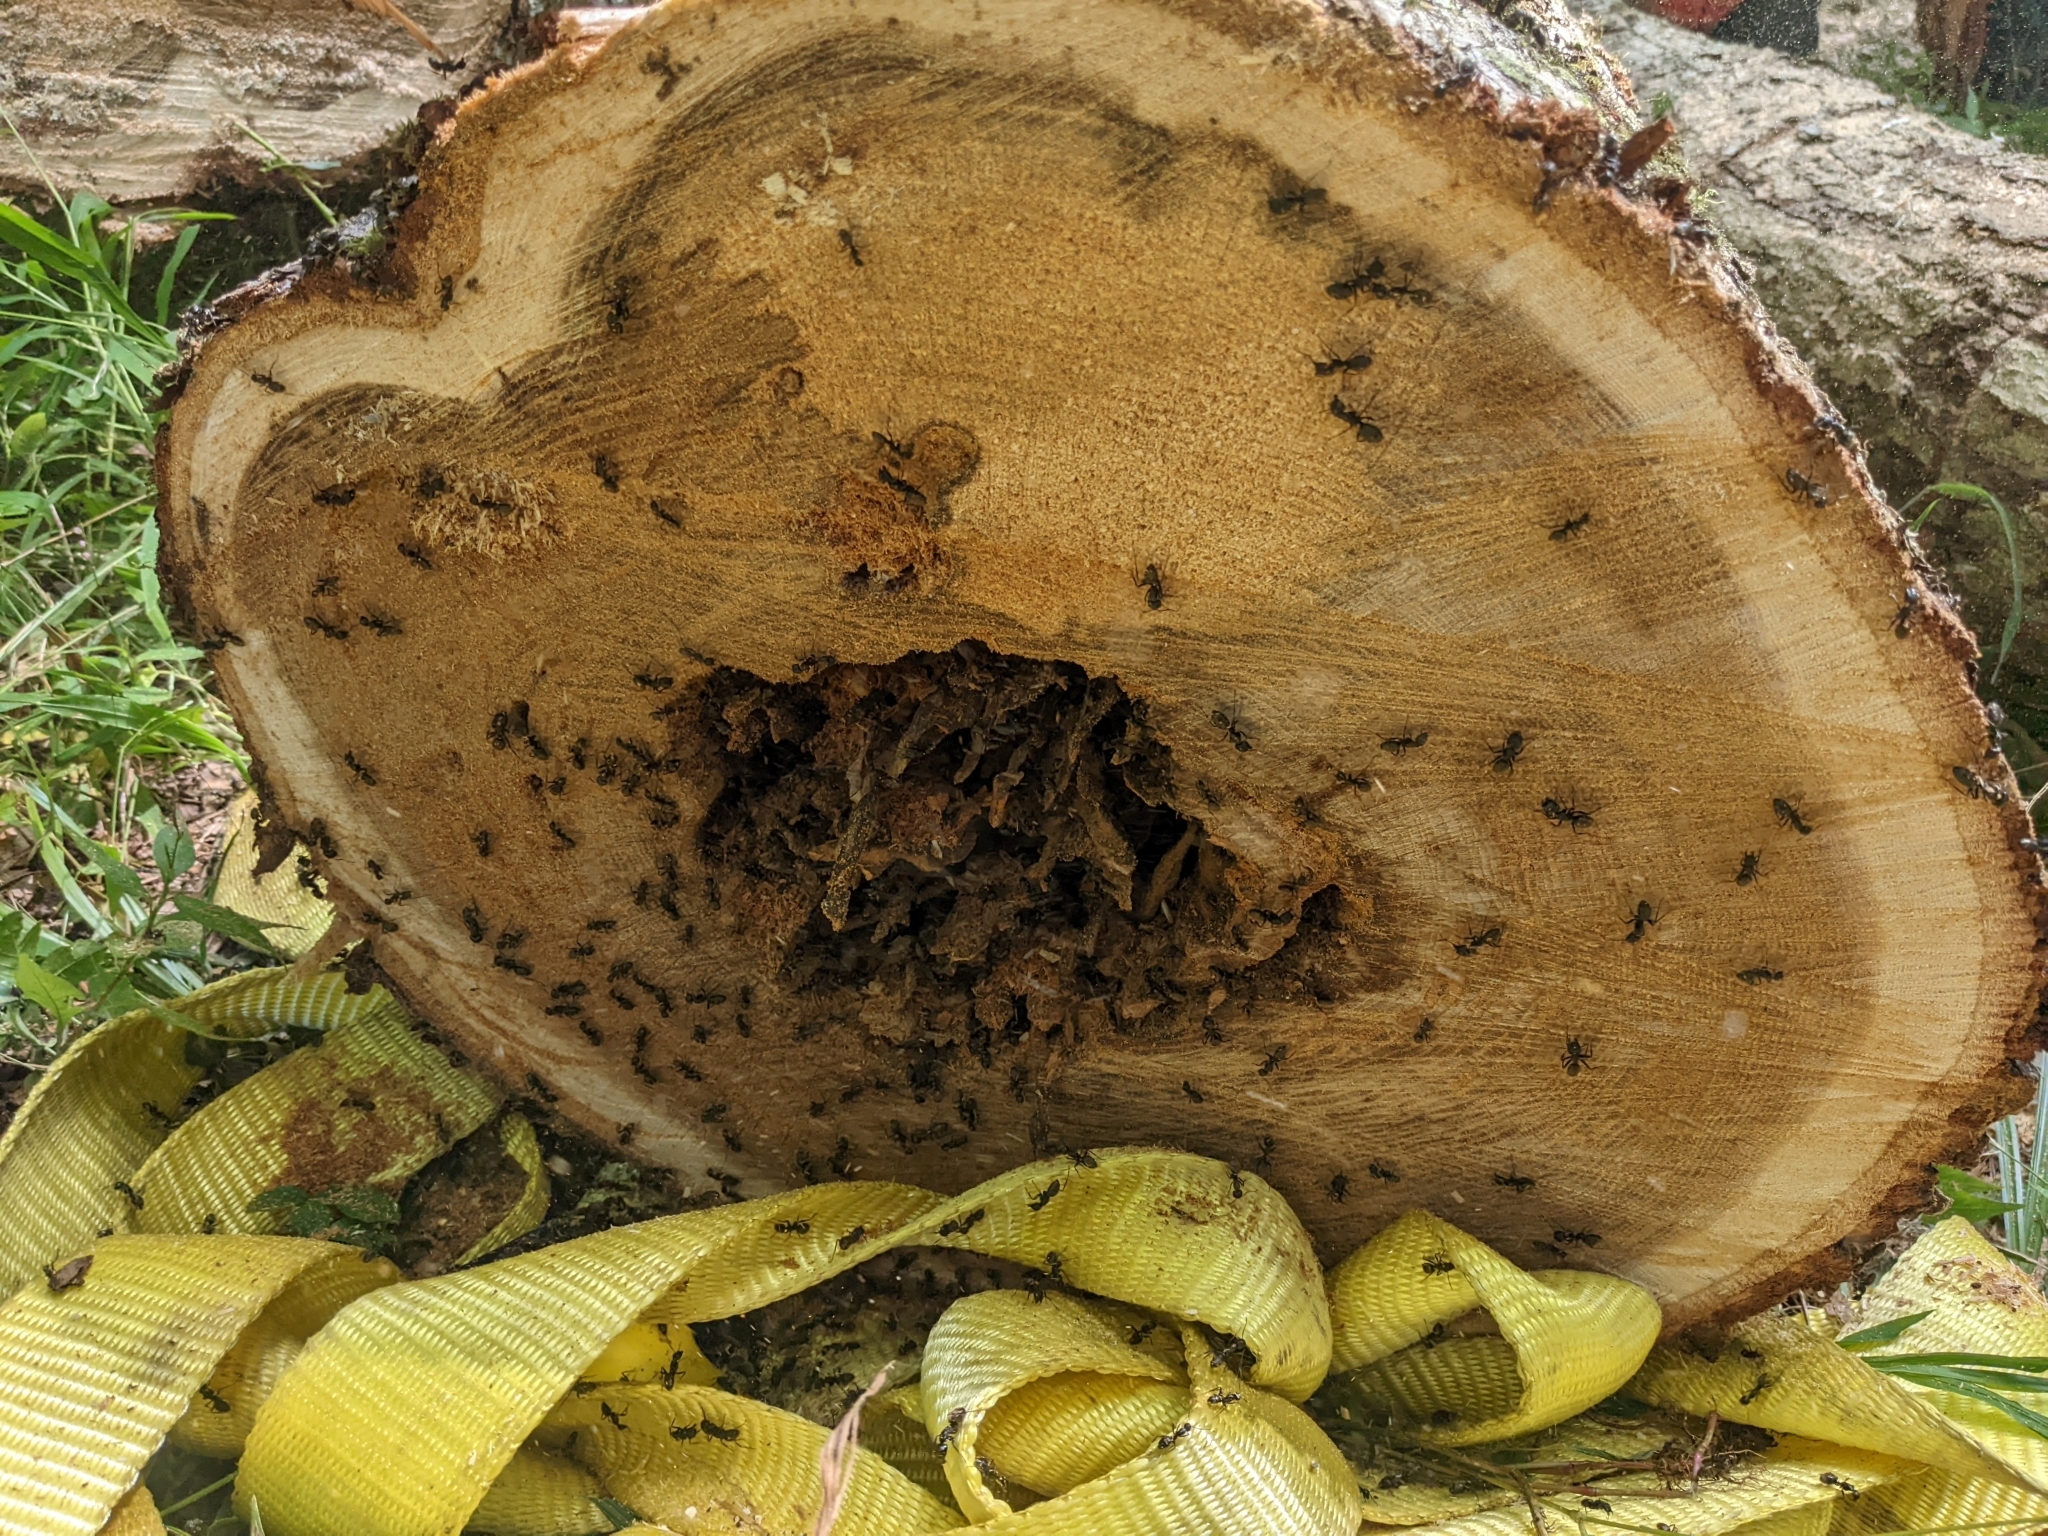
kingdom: Animalia
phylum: Arthropoda
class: Insecta
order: Hymenoptera
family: Formicidae
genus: Camponotus
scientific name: Camponotus pennsylvanicus
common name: Black carpenter ant
